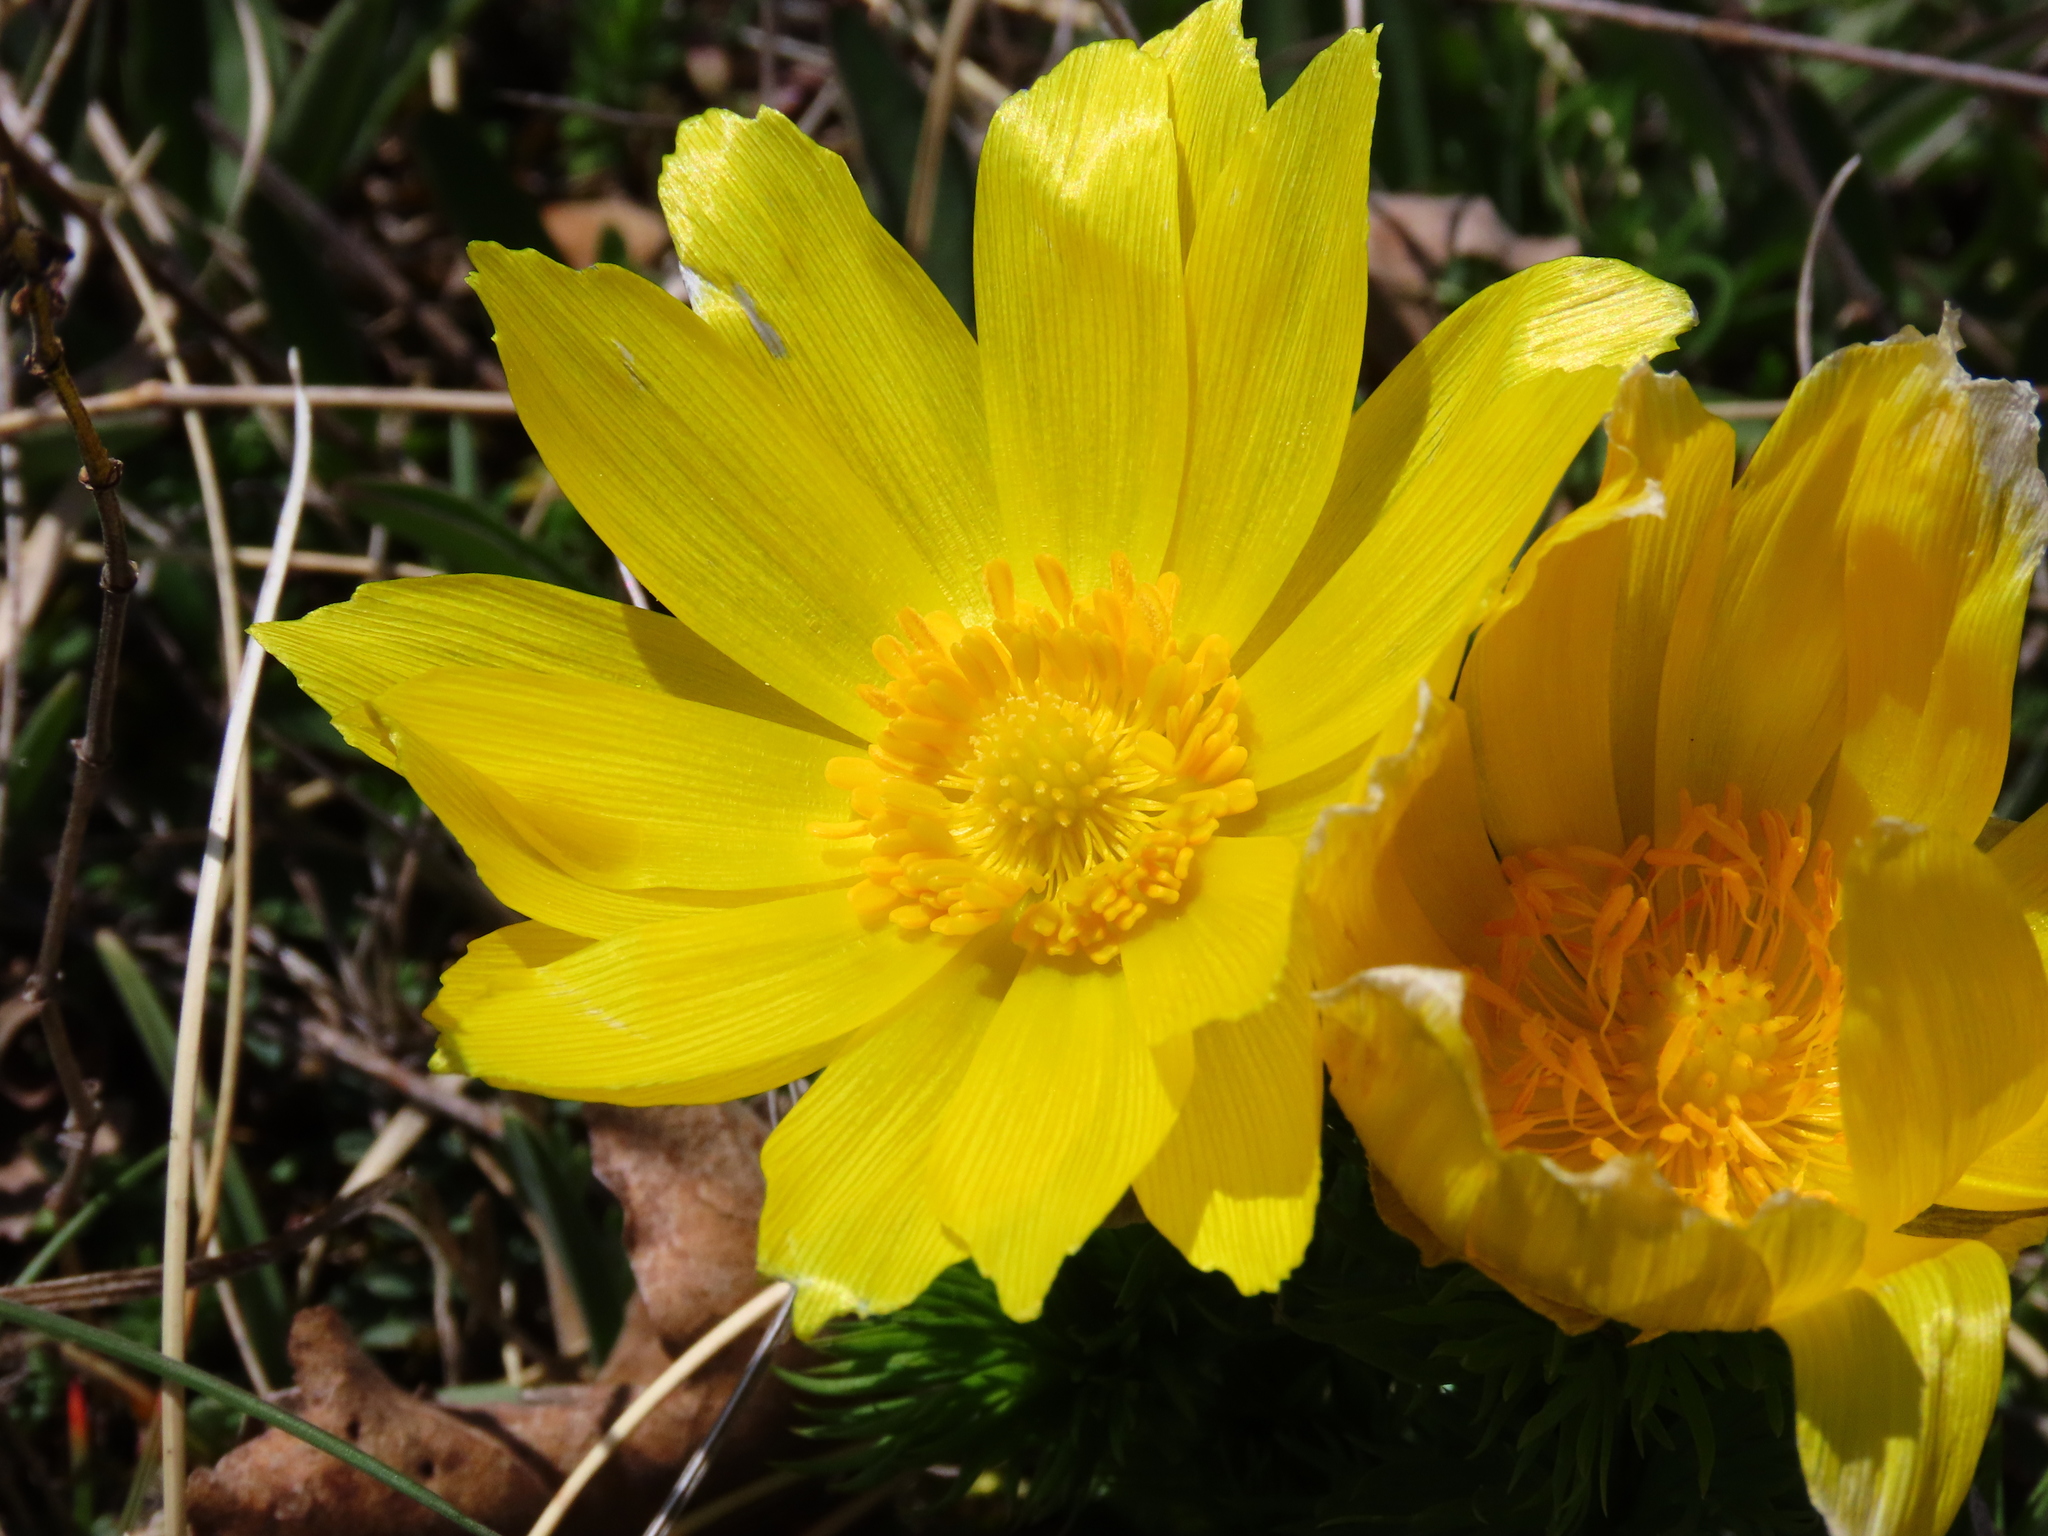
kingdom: Plantae
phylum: Tracheophyta
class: Magnoliopsida
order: Ranunculales
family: Ranunculaceae
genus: Adonis
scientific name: Adonis vernalis
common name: Yellow pheasants-eye
